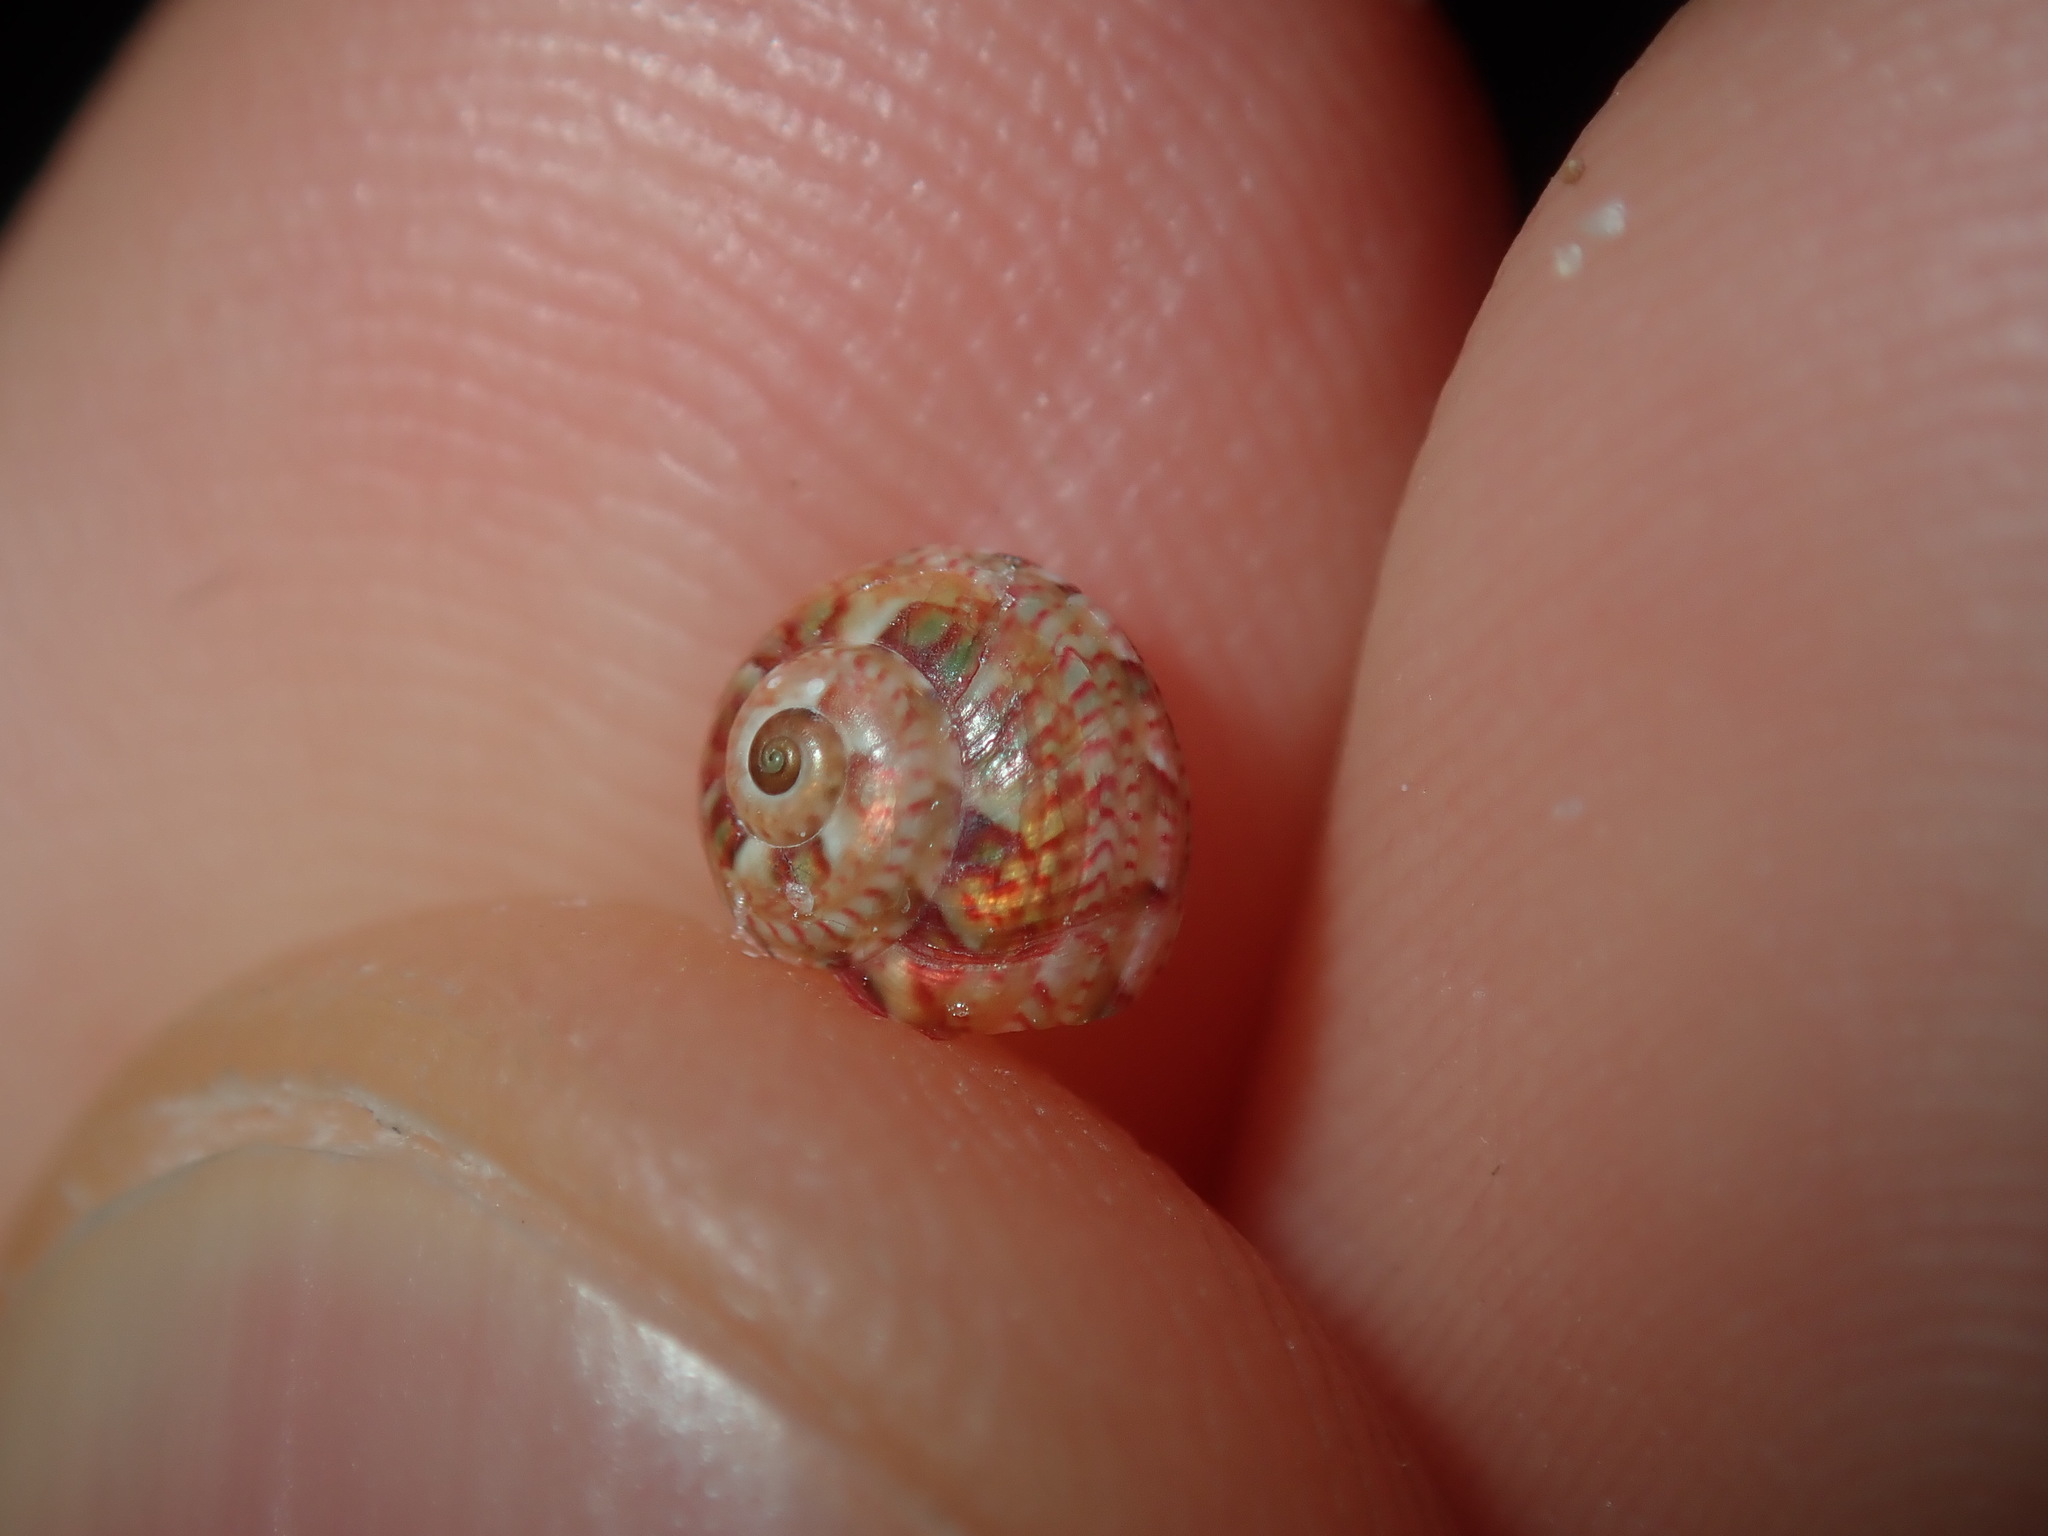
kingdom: Animalia
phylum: Mollusca
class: Gastropoda
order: Trochida
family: Trochidae
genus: Cantharidella
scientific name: Cantharidella picturata
